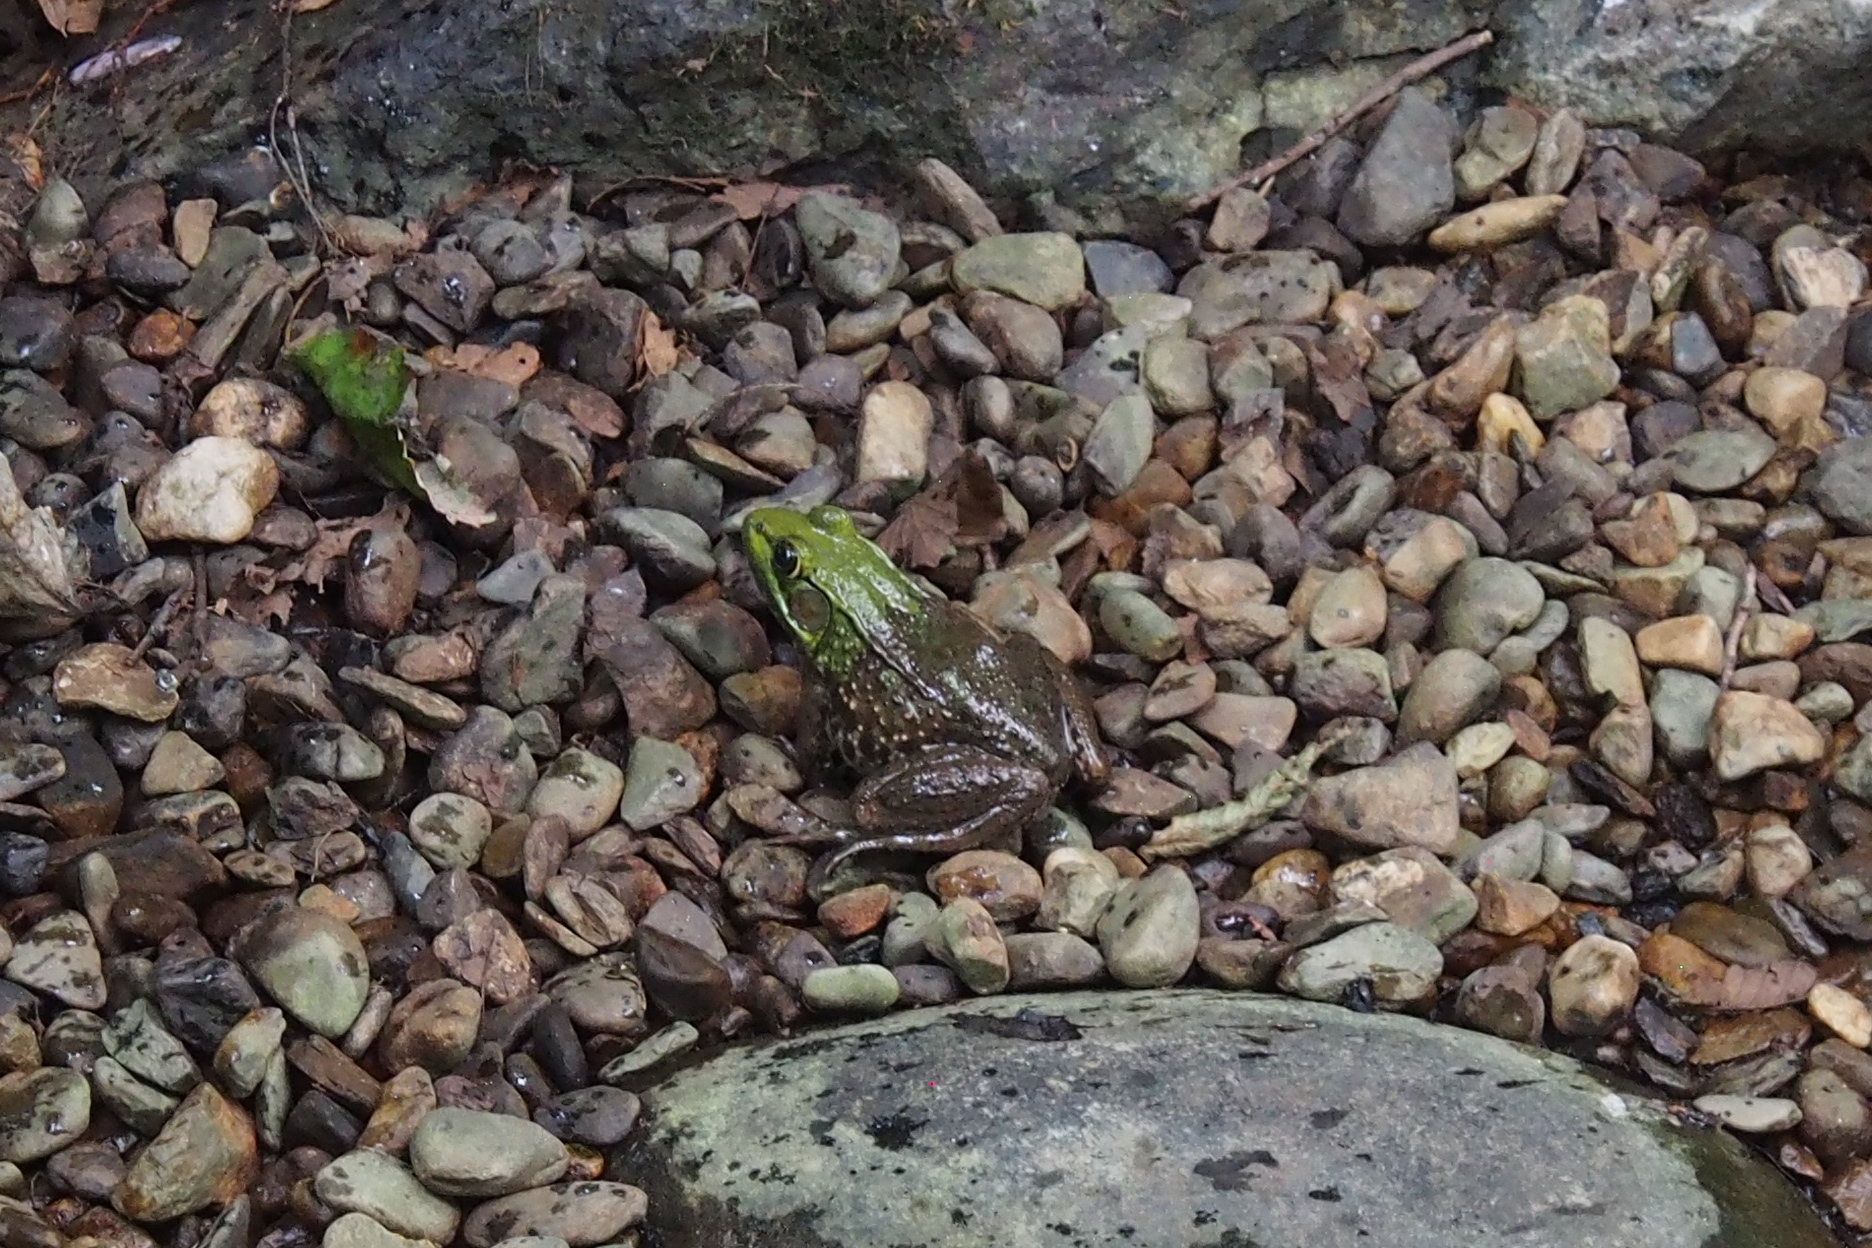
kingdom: Animalia
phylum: Chordata
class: Amphibia
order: Anura
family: Ranidae
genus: Lithobates
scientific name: Lithobates clamitans
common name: Green frog
